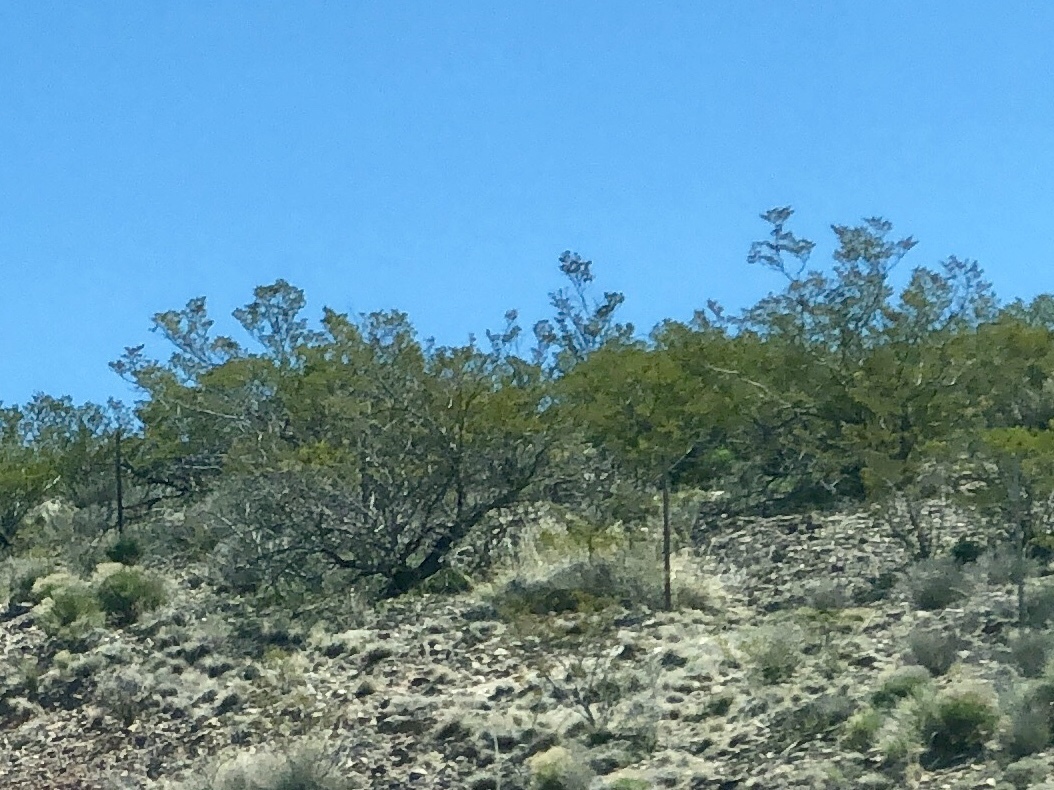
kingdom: Plantae
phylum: Tracheophyta
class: Magnoliopsida
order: Zygophyllales
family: Zygophyllaceae
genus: Larrea
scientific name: Larrea tridentata
